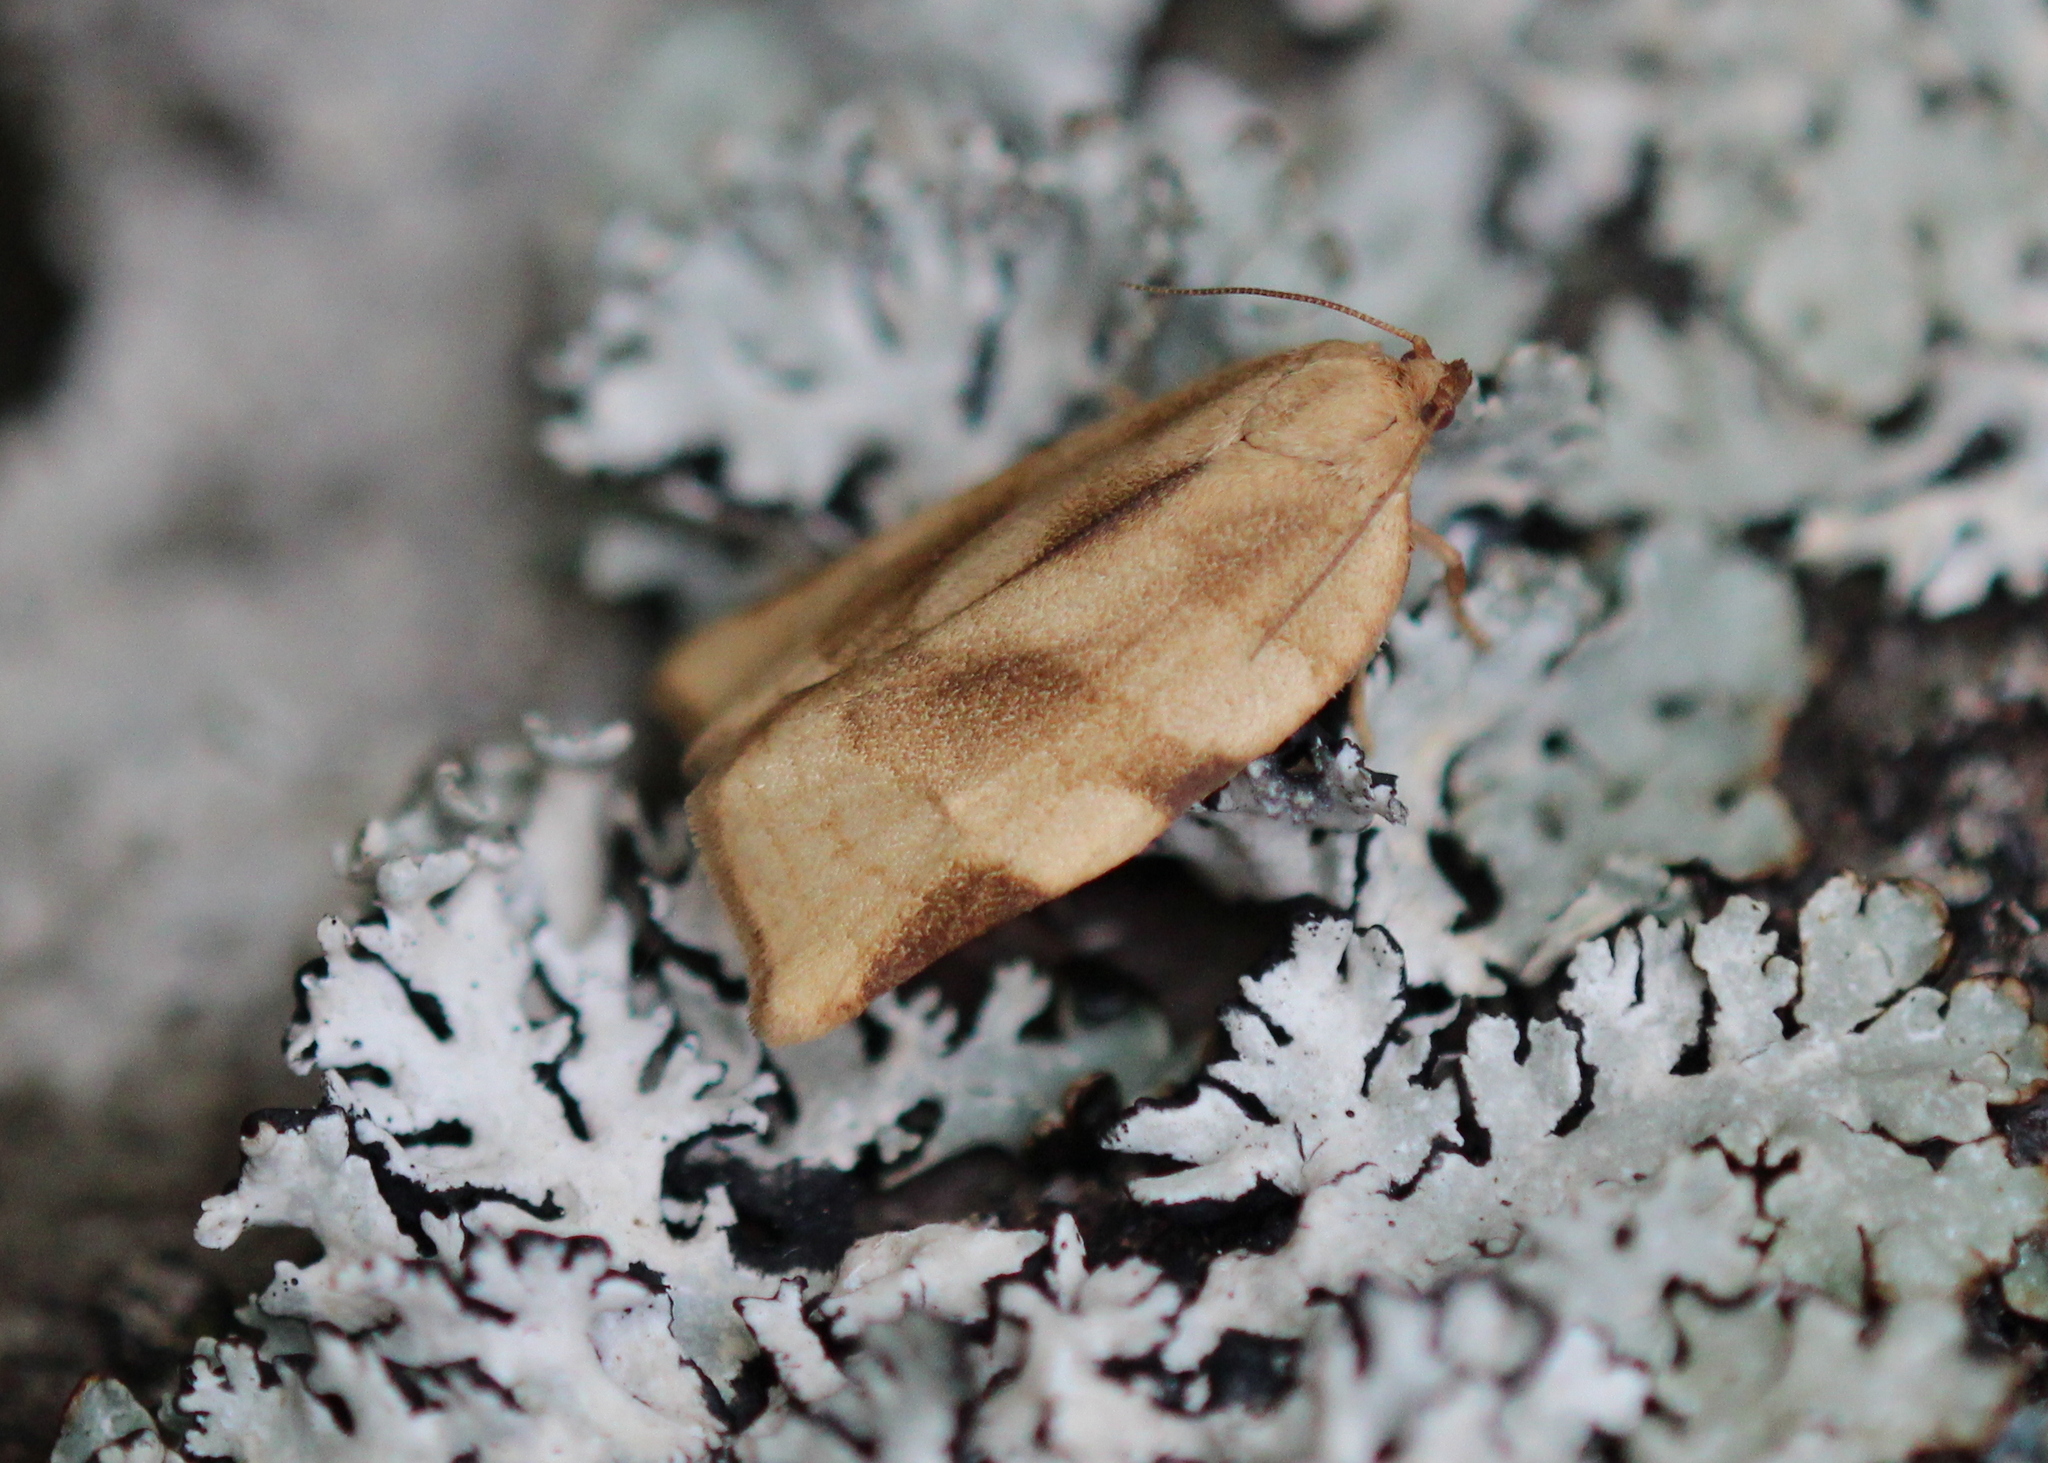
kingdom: Animalia
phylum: Arthropoda
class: Insecta
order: Lepidoptera
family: Tortricidae
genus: Choristoneura
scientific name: Choristoneura fractivittana
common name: Broken-banded leafroller moth
